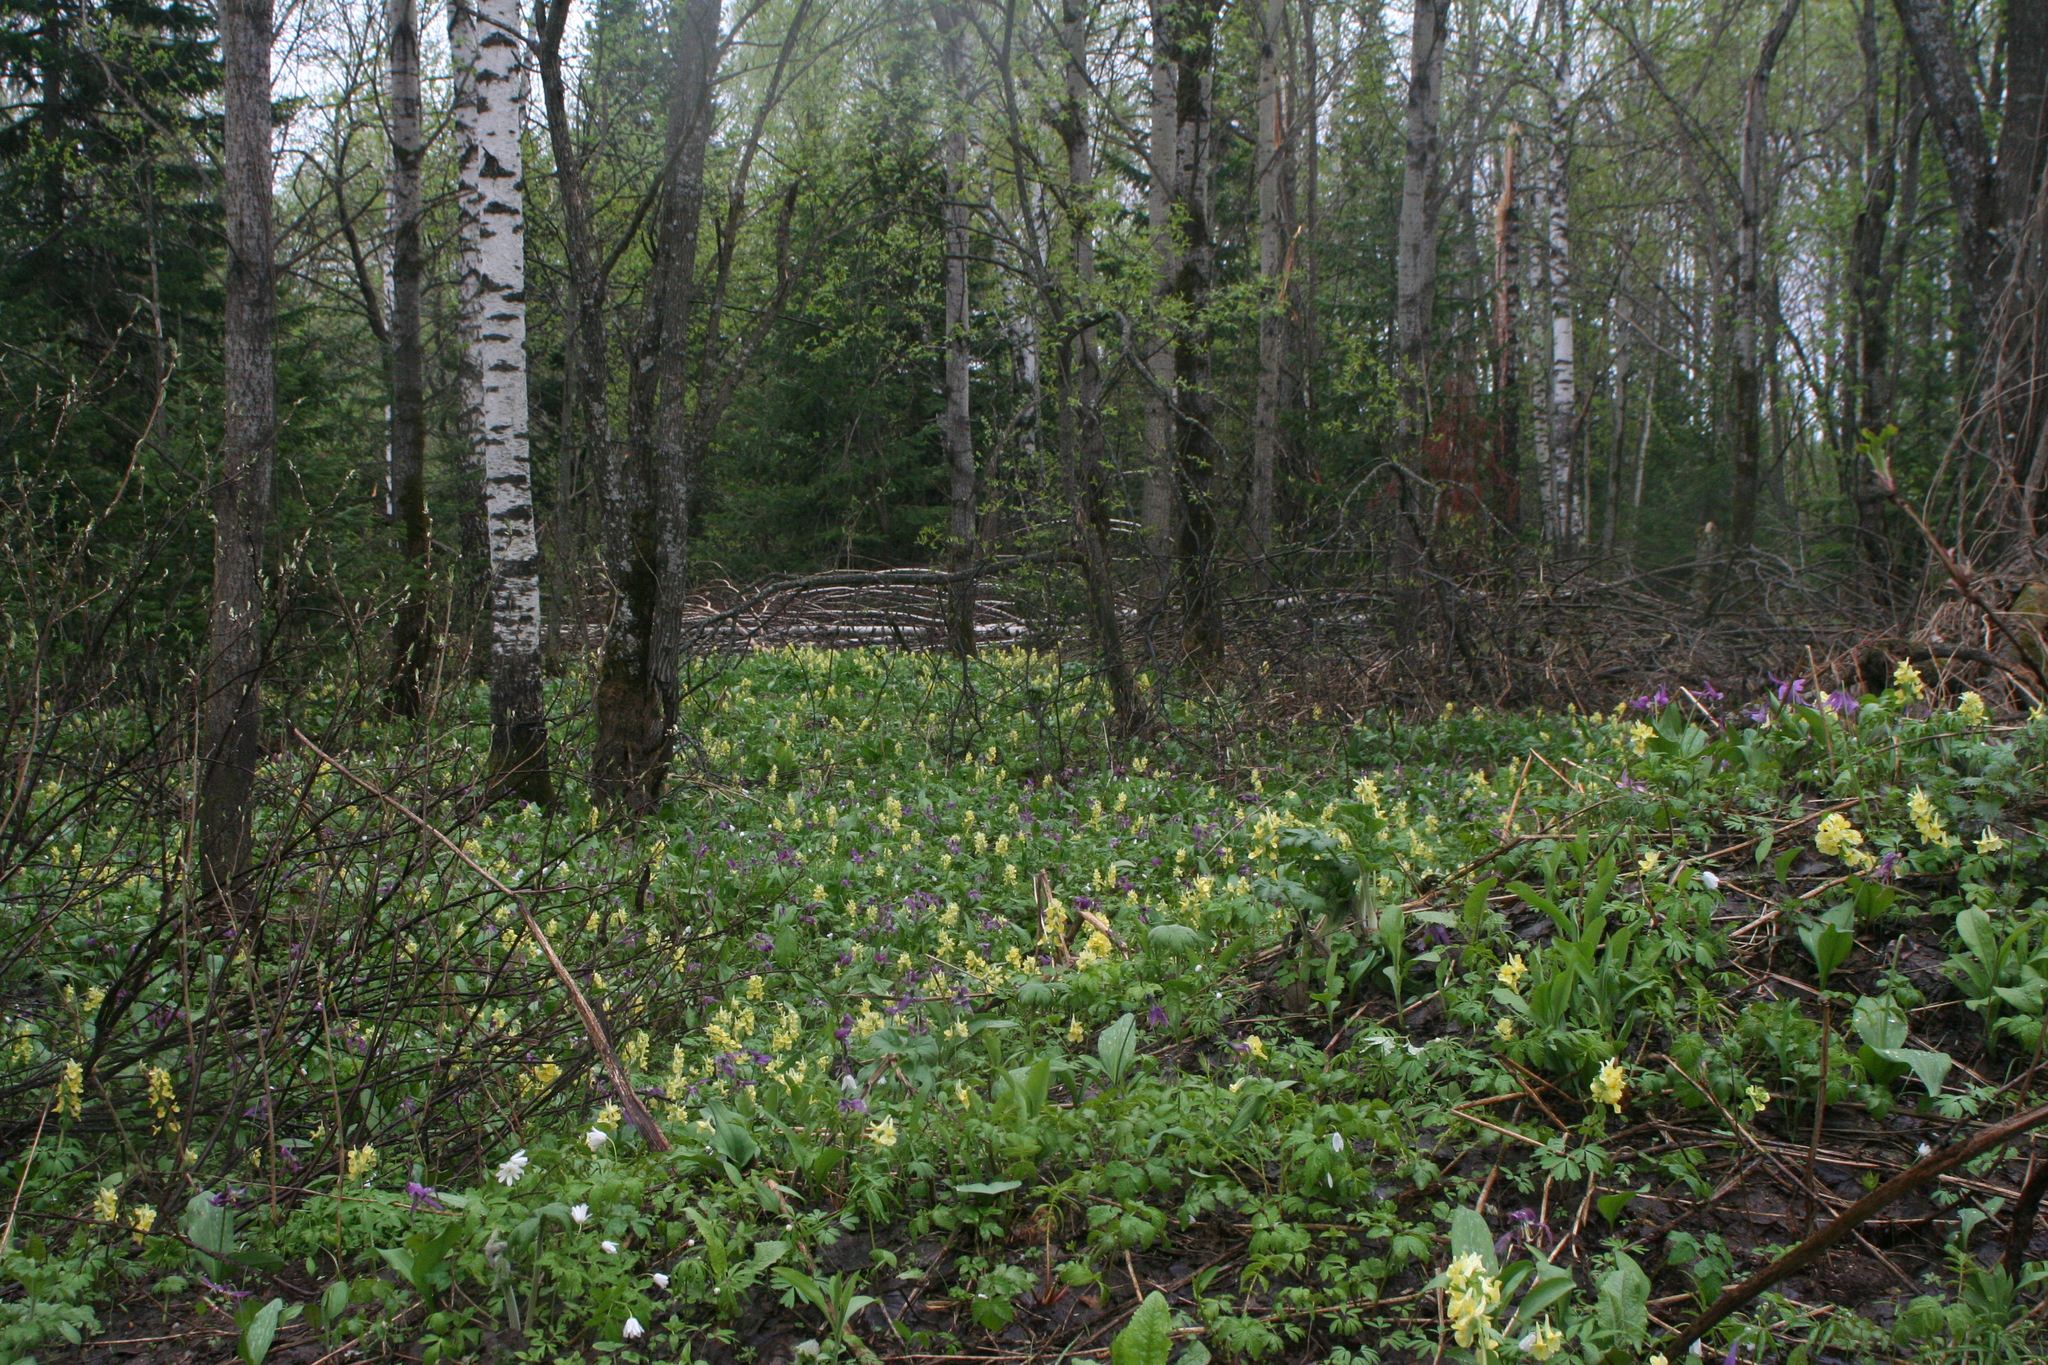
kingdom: Plantae
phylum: Tracheophyta
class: Magnoliopsida
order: Fagales
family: Betulaceae
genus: Betula
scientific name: Betula pendula
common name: Silver birch
